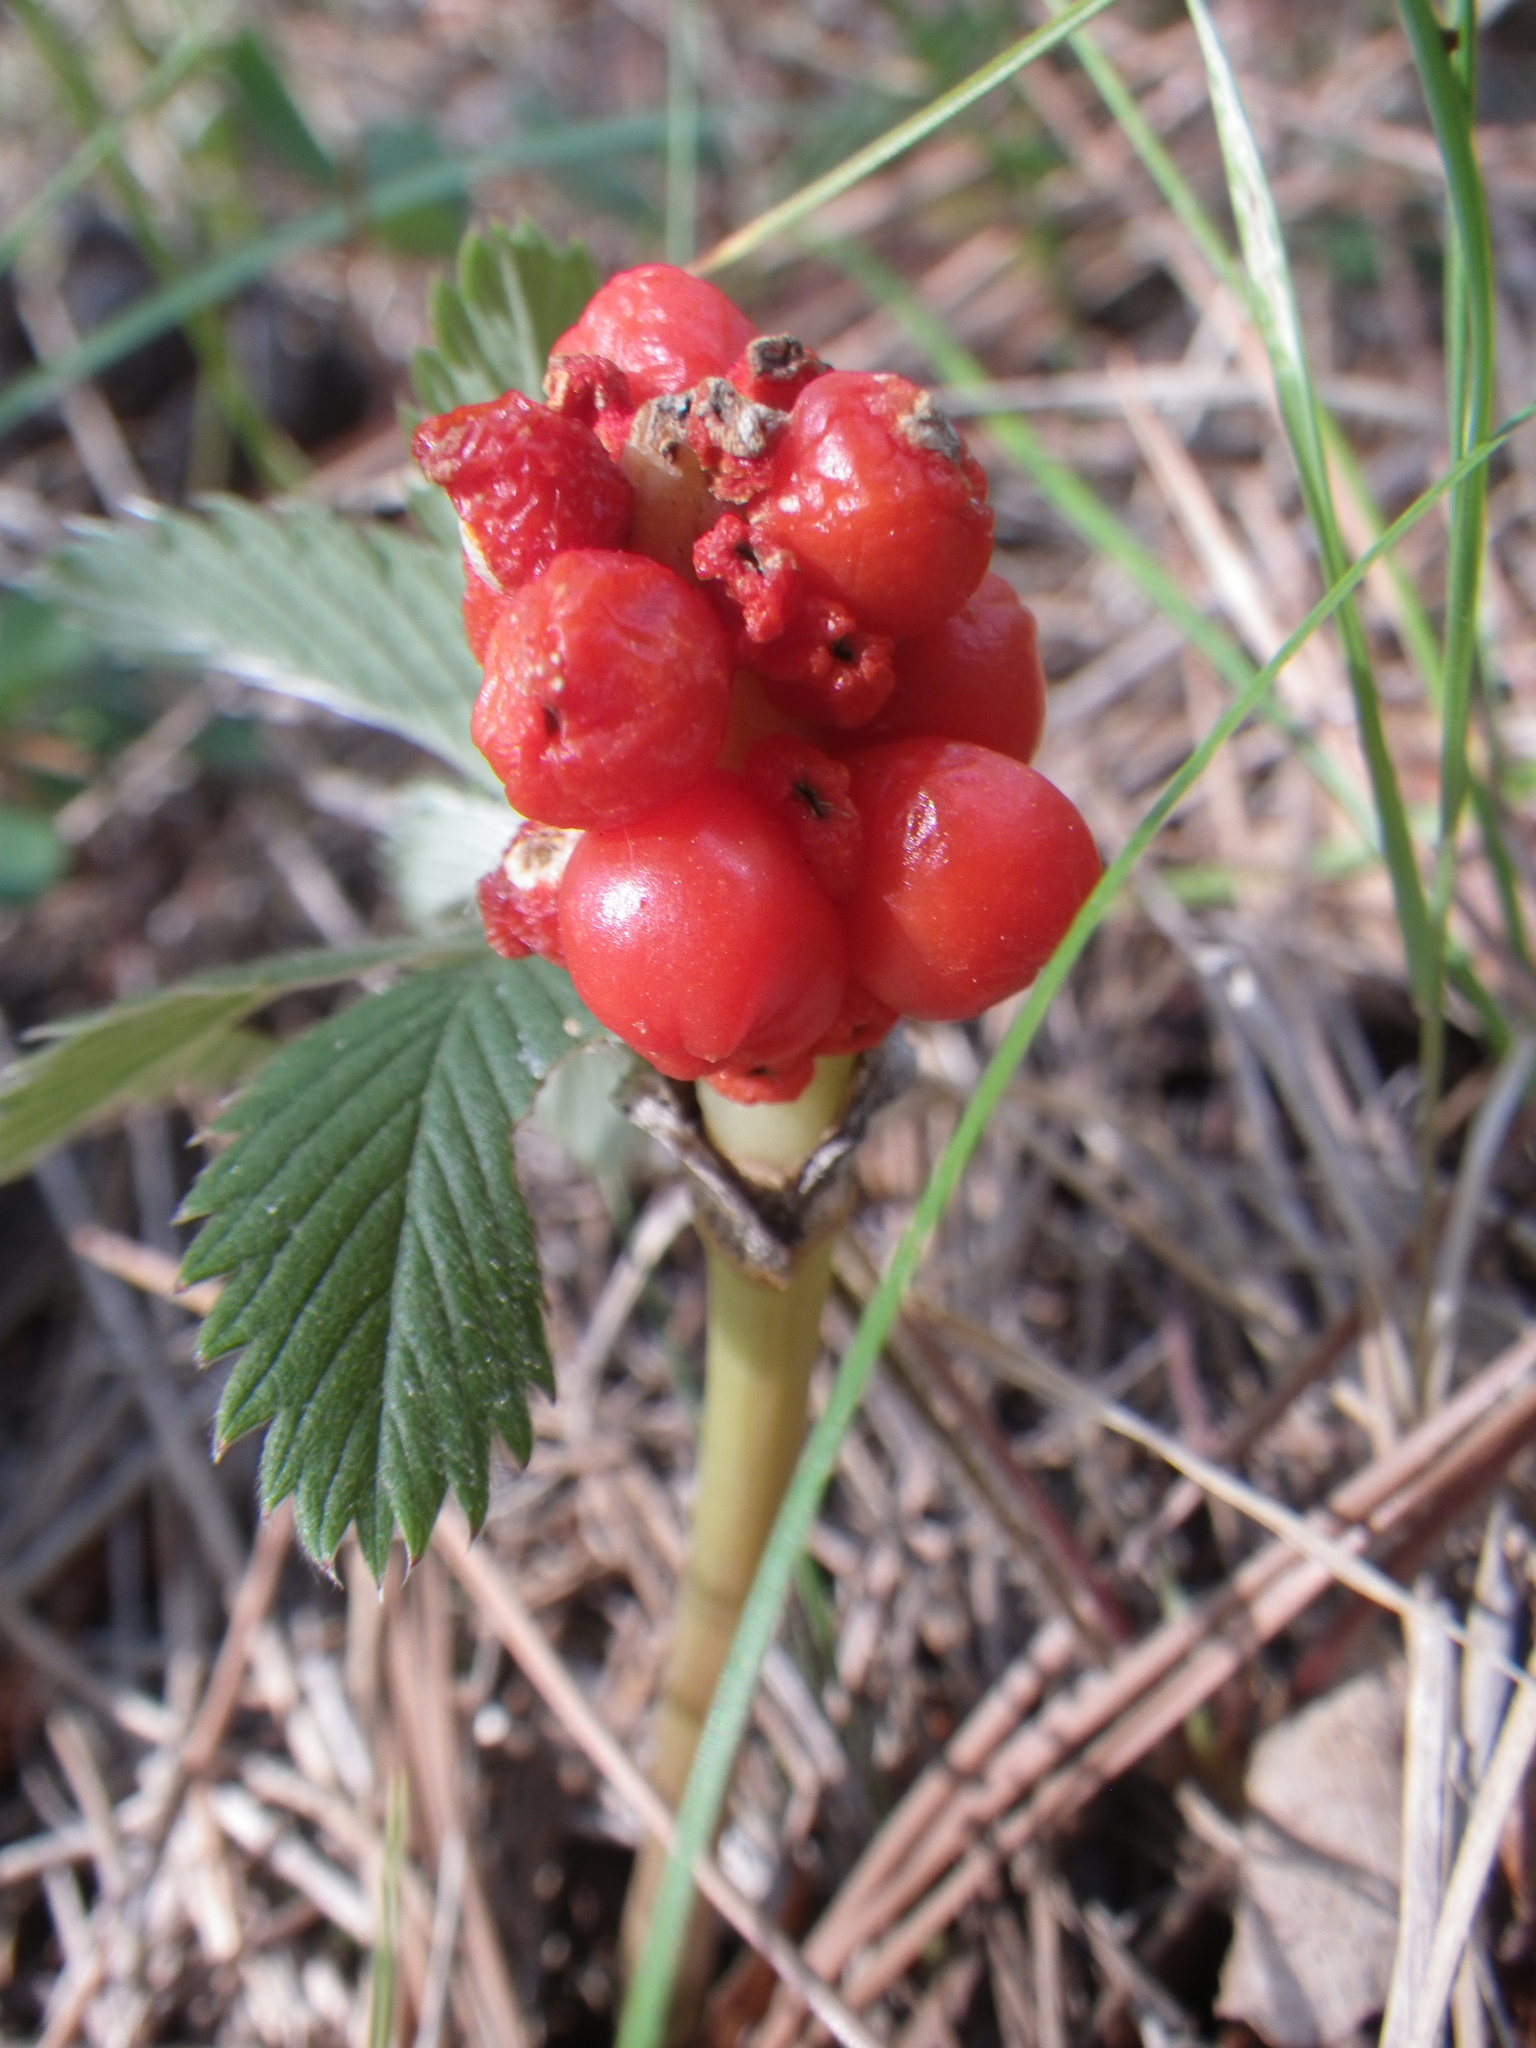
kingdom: Plantae
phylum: Tracheophyta
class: Liliopsida
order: Alismatales
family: Araceae
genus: Arum
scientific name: Arum orientale
